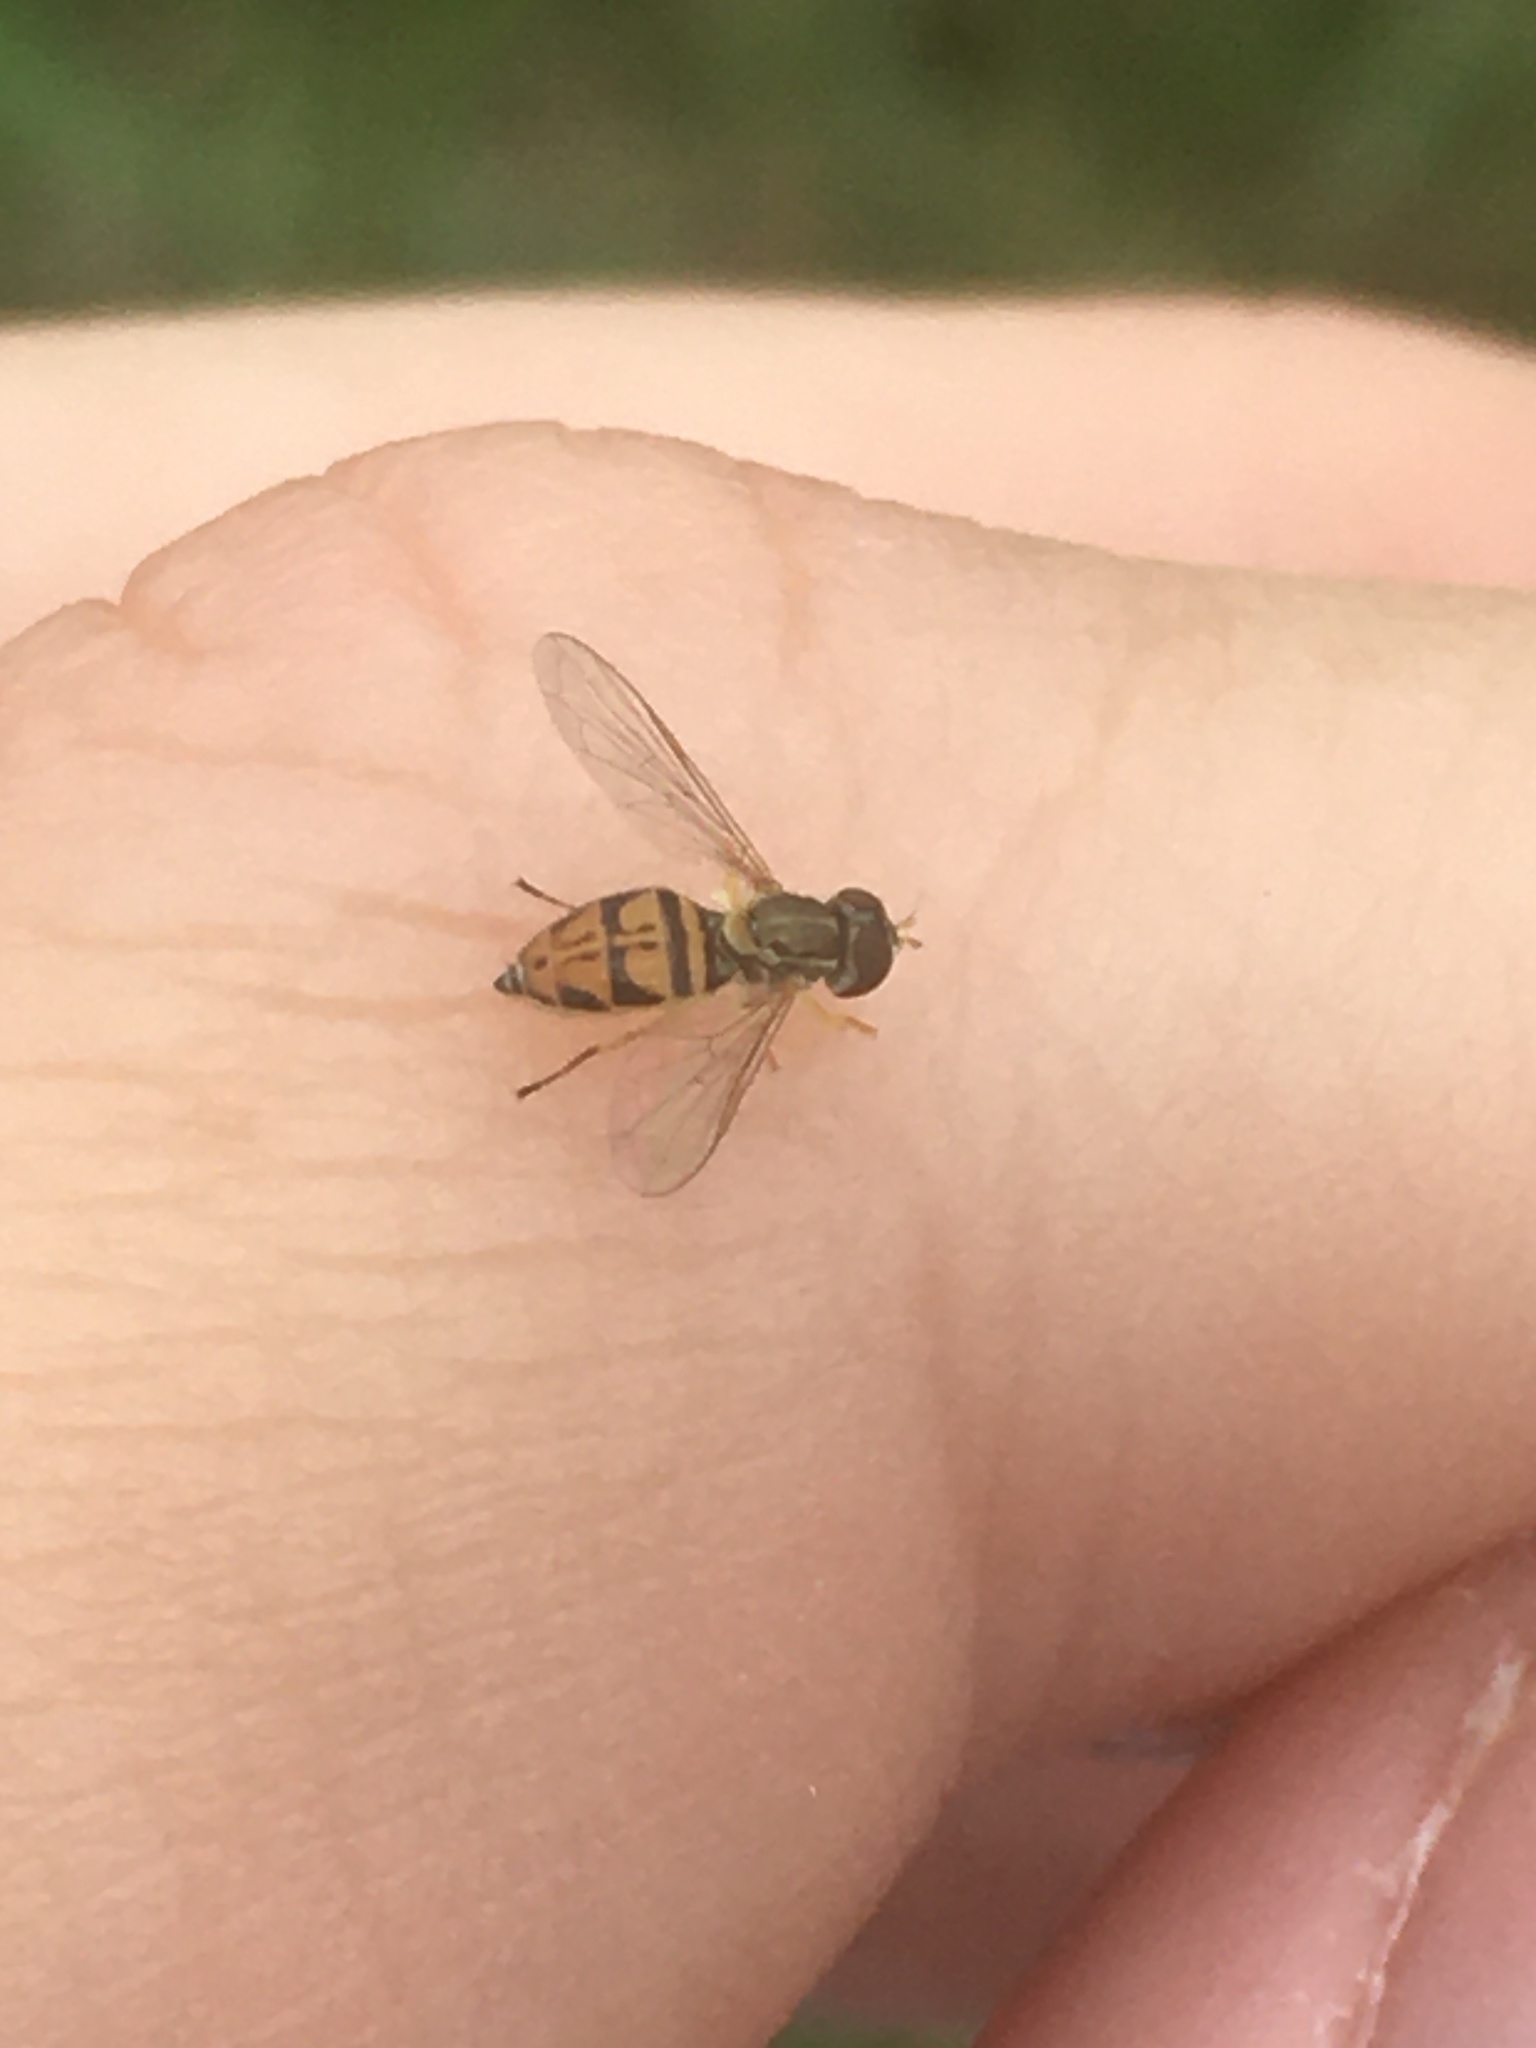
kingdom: Animalia
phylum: Arthropoda
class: Insecta
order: Diptera
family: Syrphidae
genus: Toxomerus
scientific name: Toxomerus marginatus
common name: Syrphid fly
